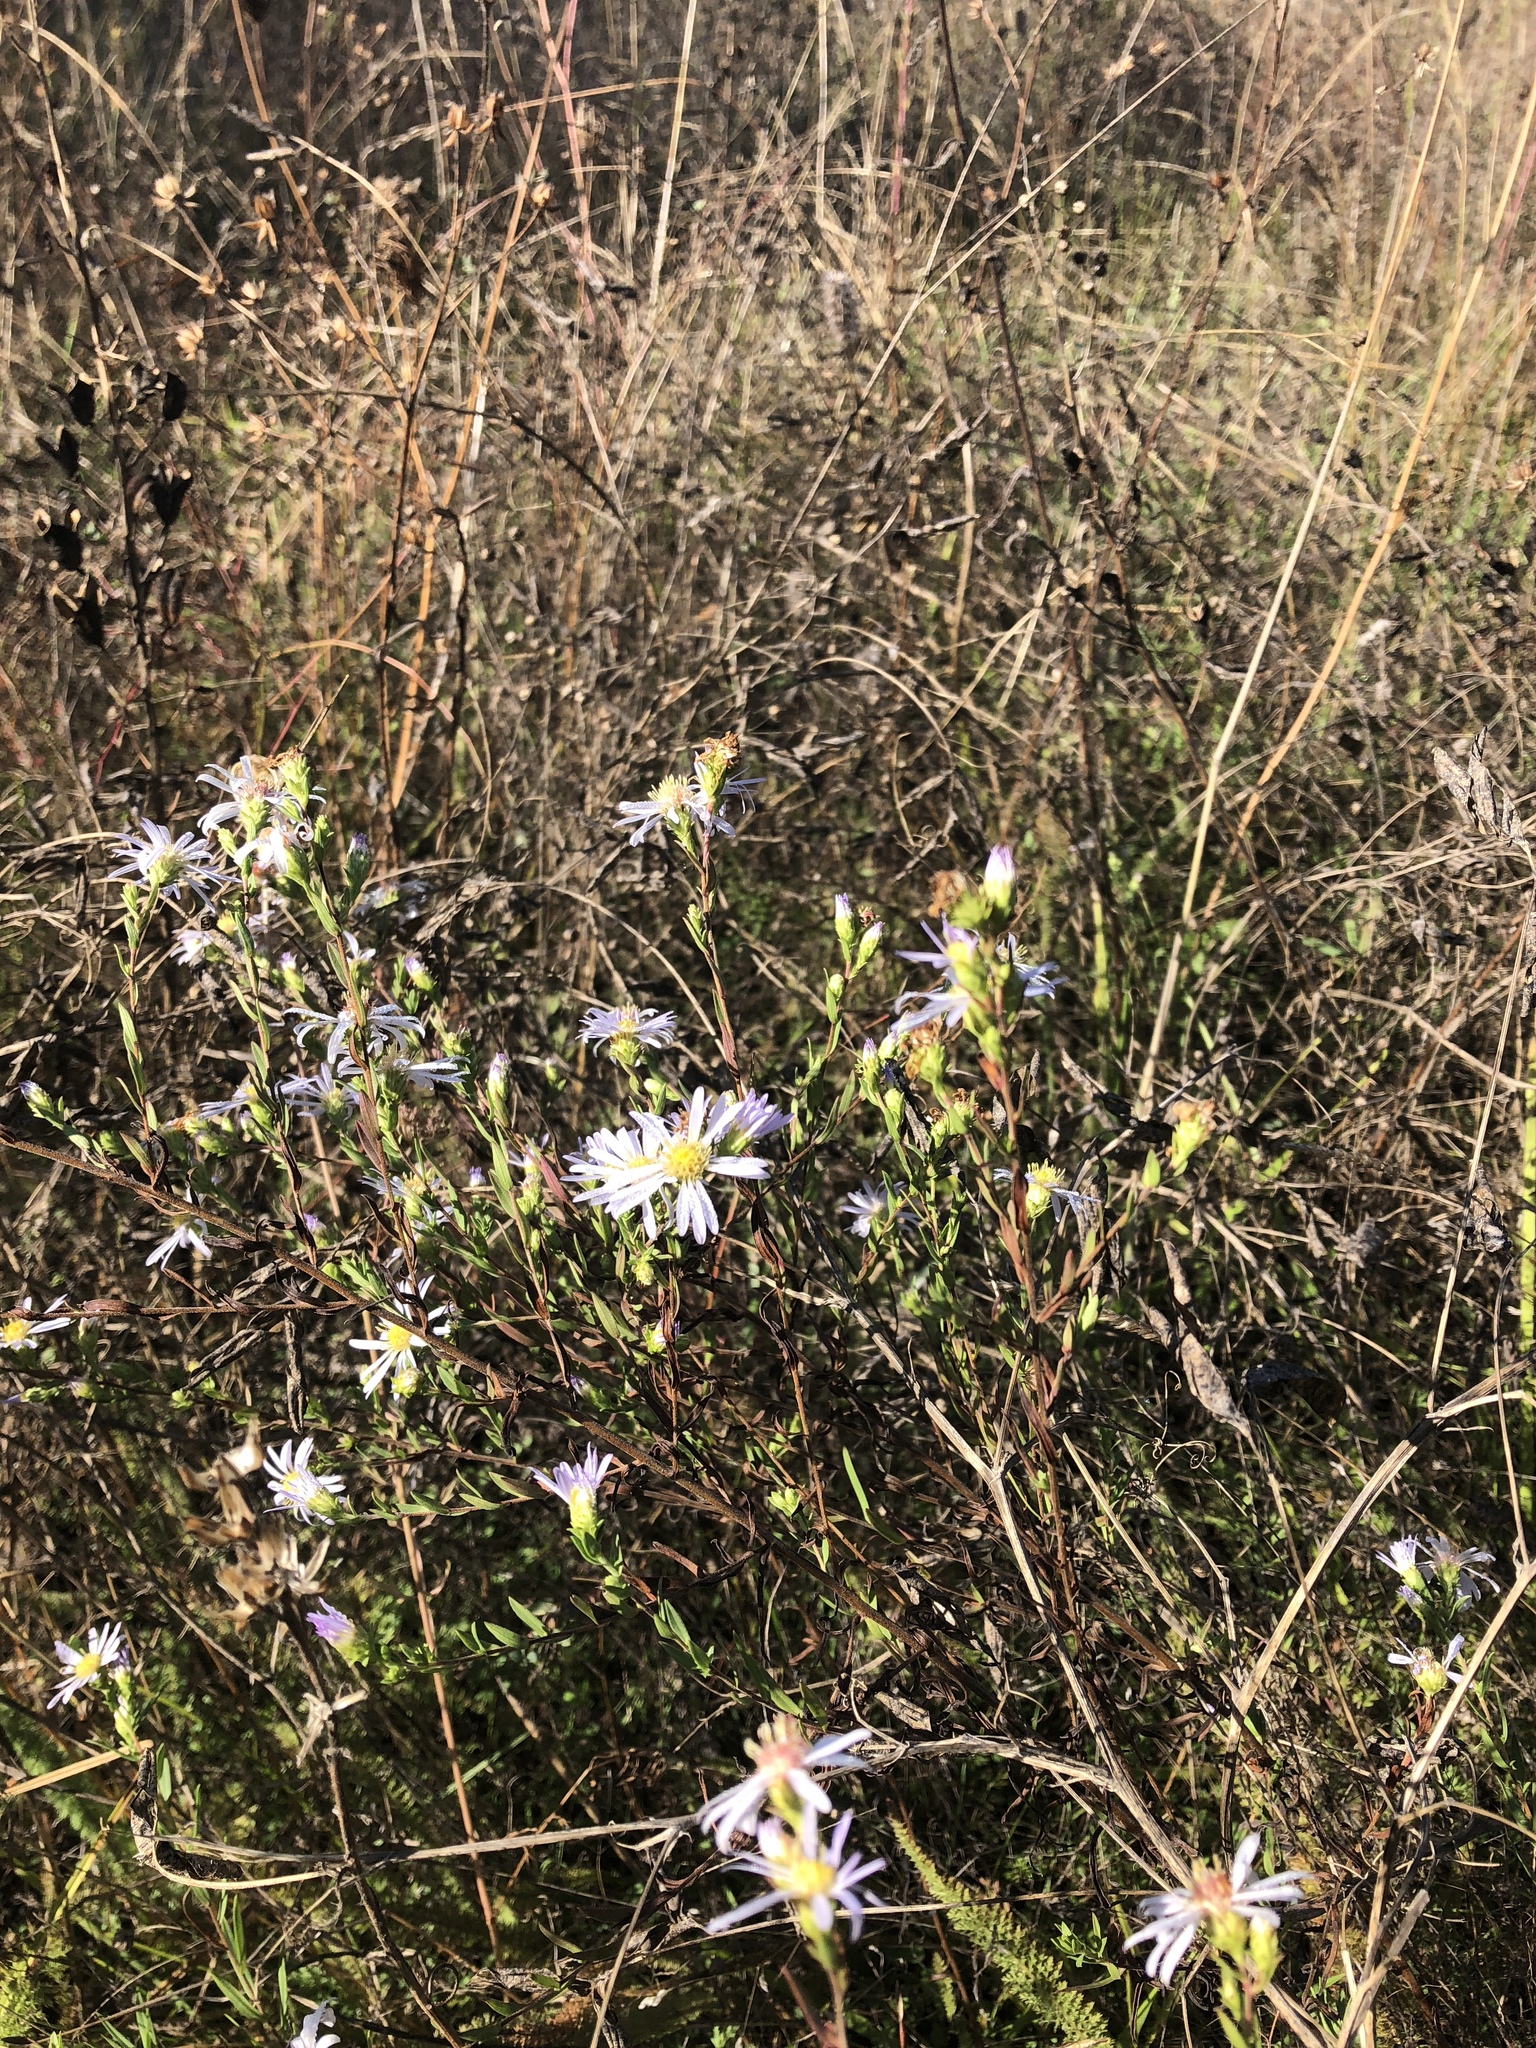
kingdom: Plantae
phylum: Tracheophyta
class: Magnoliopsida
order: Asterales
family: Asteraceae
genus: Symphyotrichum
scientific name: Symphyotrichum hallii
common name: Hall's aster
